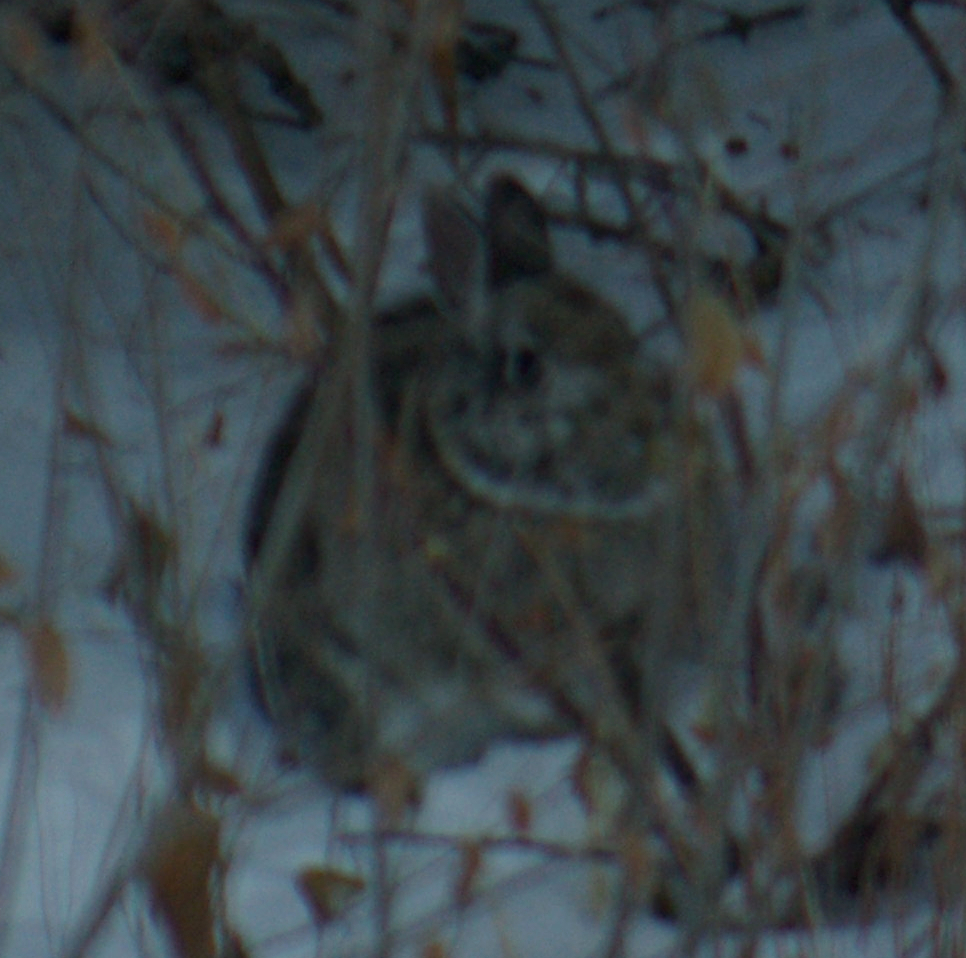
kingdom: Animalia
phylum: Chordata
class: Mammalia
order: Lagomorpha
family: Leporidae
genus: Sylvilagus
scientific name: Sylvilagus floridanus
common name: Eastern cottontail
